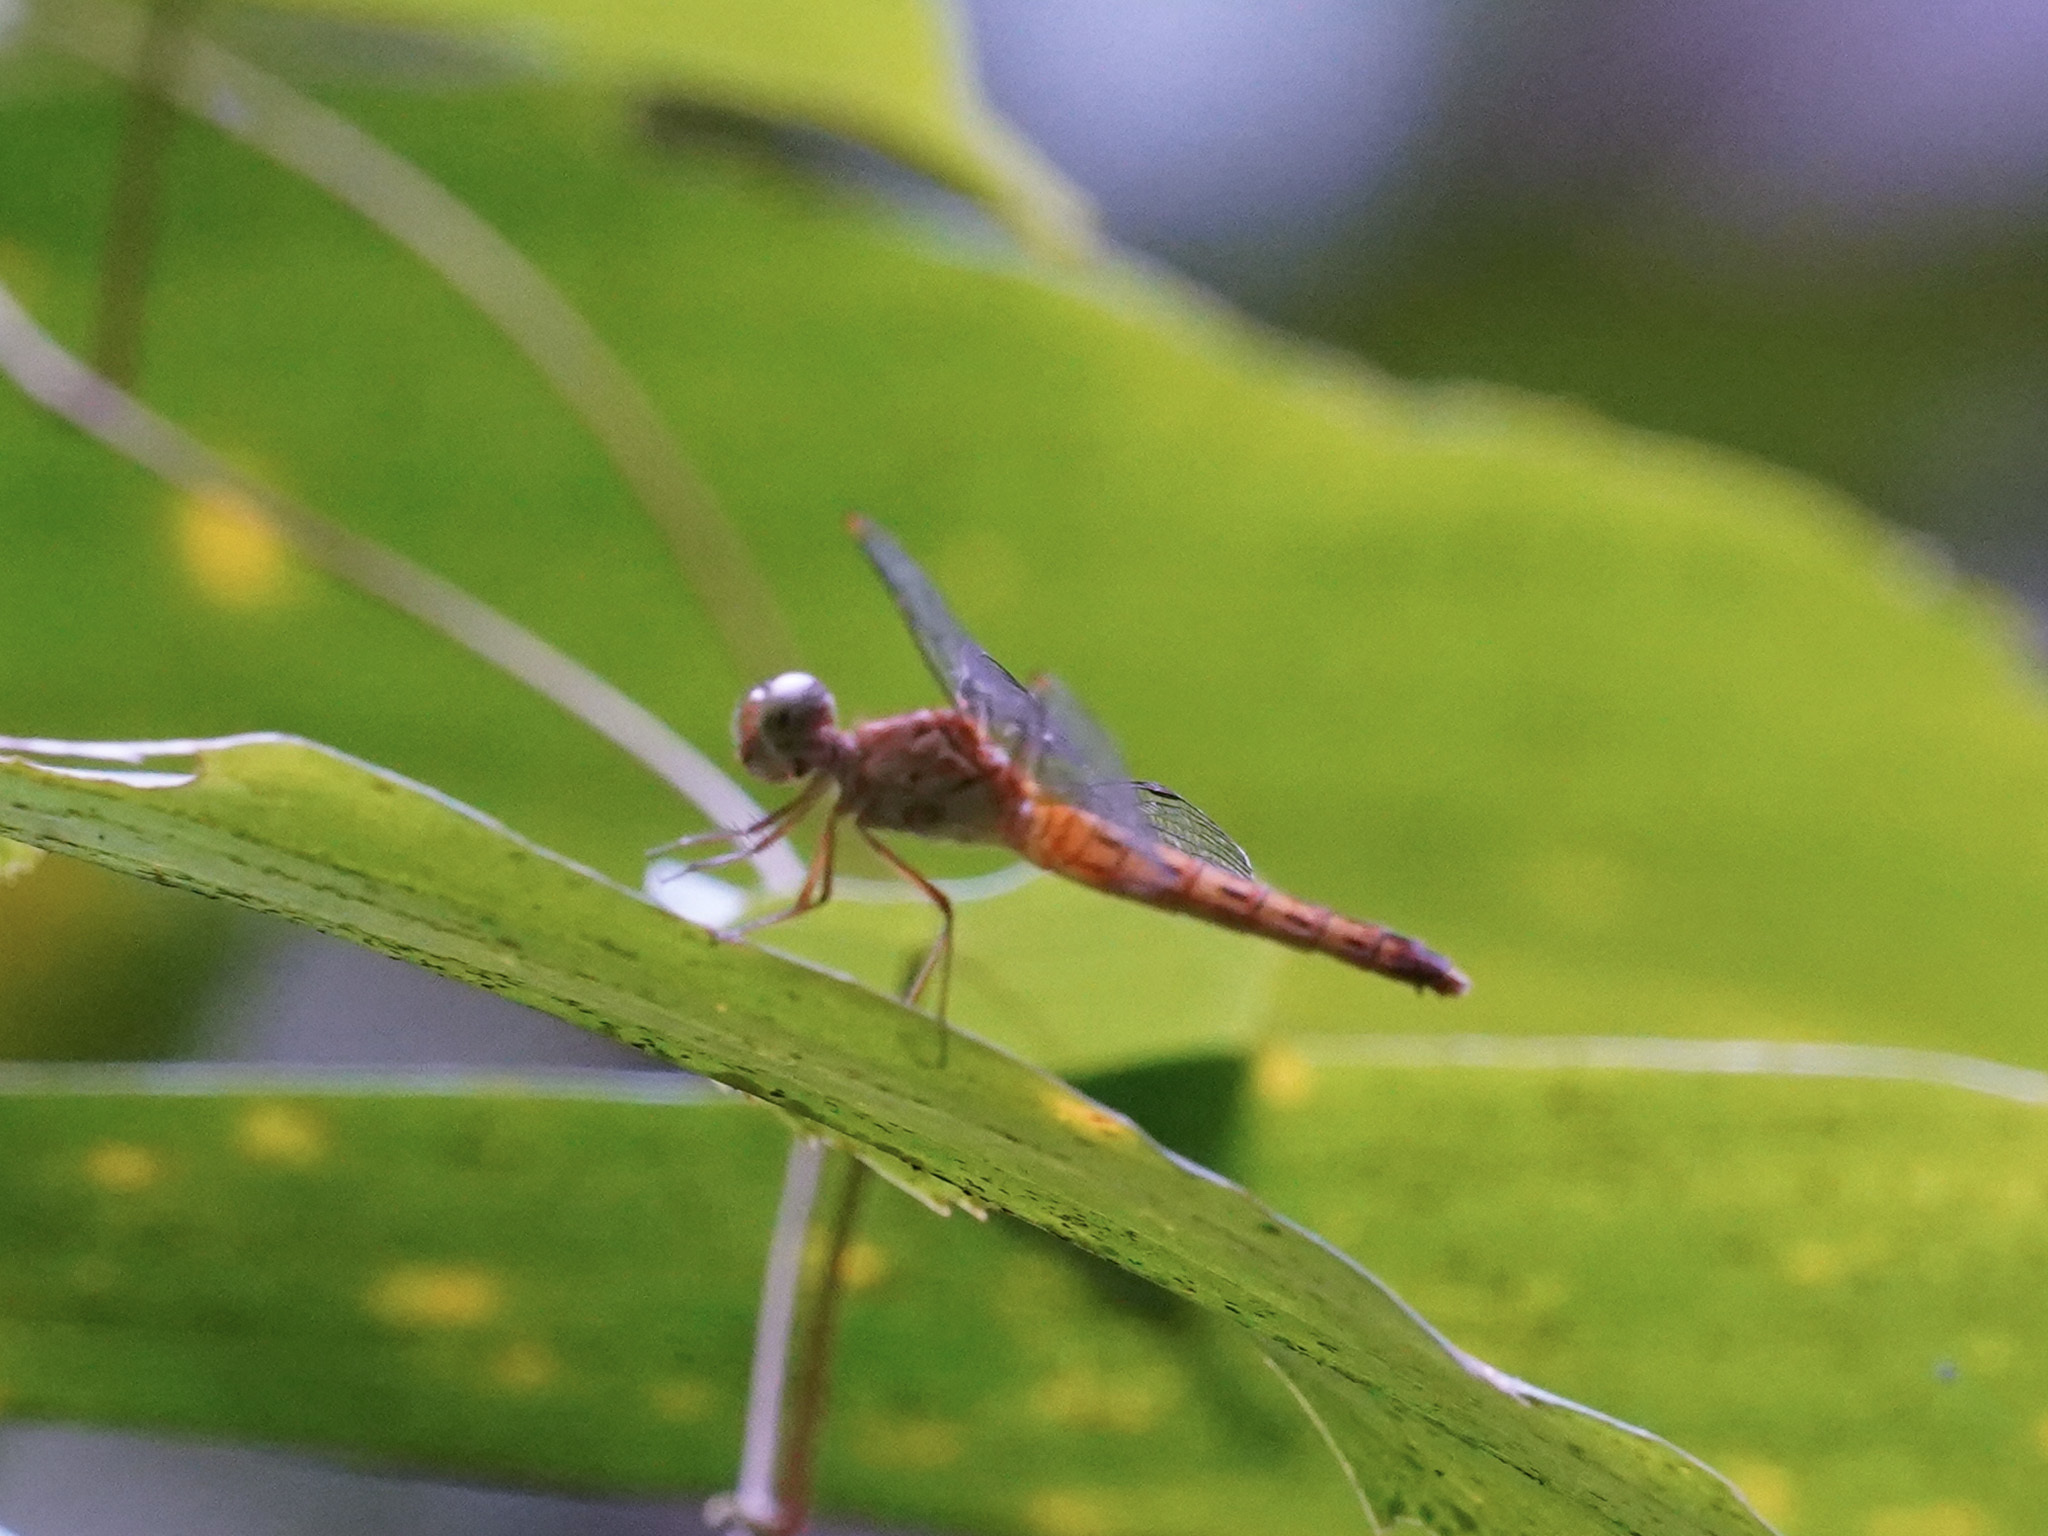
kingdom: Animalia
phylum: Arthropoda
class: Insecta
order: Odonata
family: Libellulidae
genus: Neurothemis
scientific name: Neurothemis fluctuans
